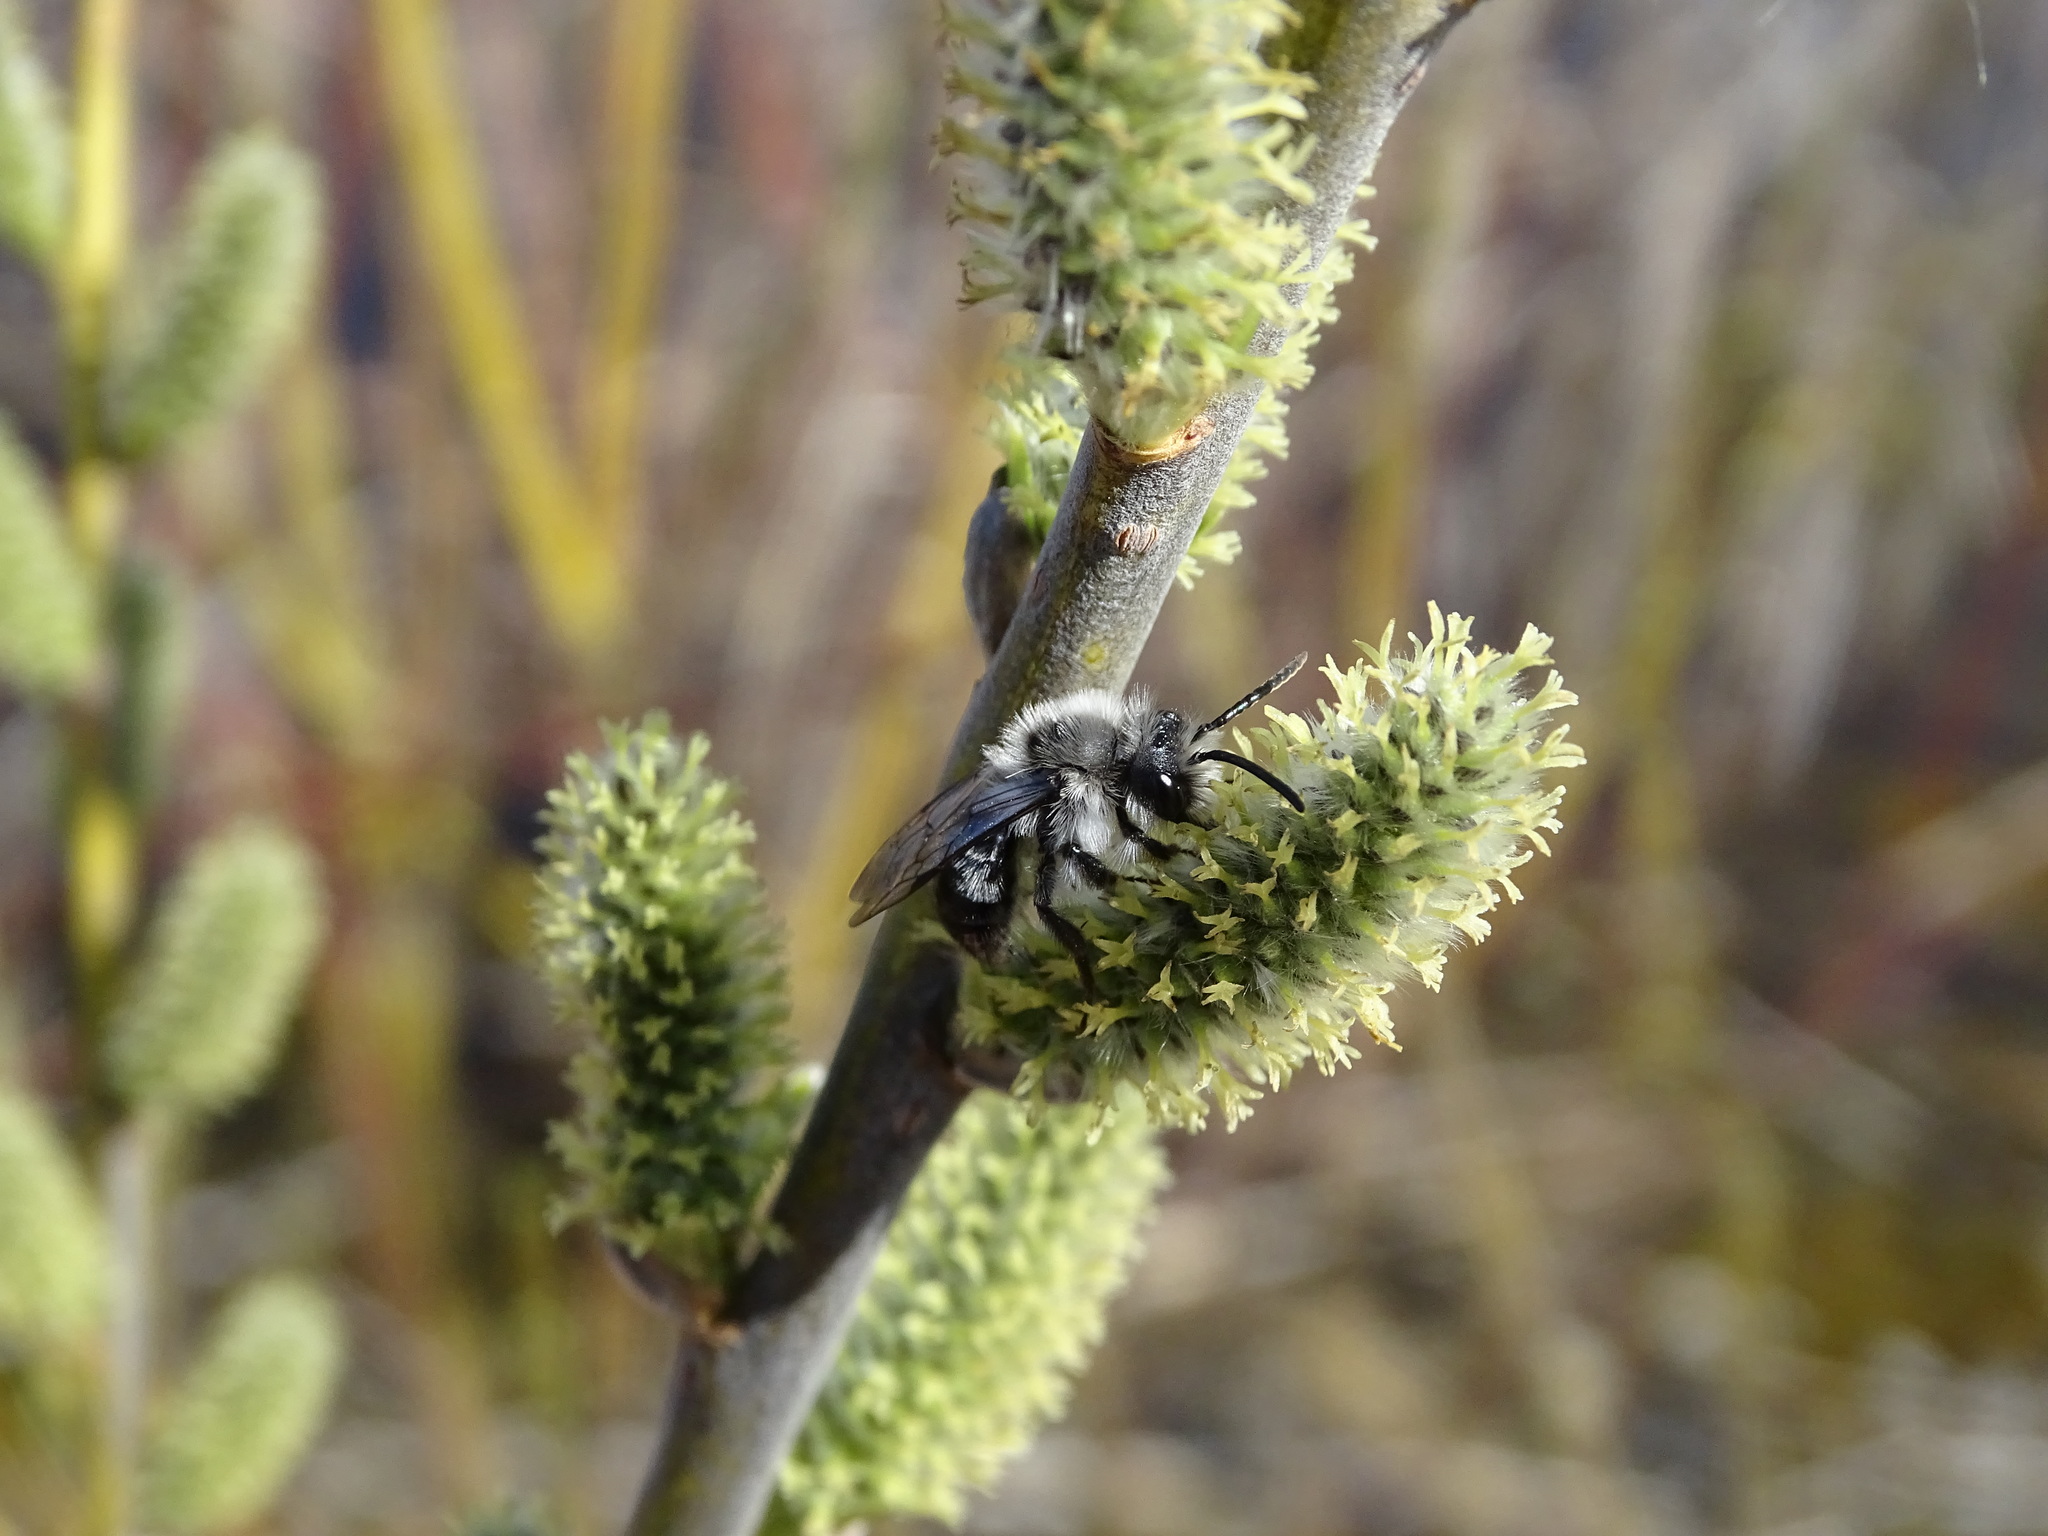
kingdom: Animalia
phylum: Arthropoda
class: Insecta
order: Hymenoptera
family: Andrenidae
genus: Andrena
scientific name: Andrena vaga
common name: Grey-backed mining bee
